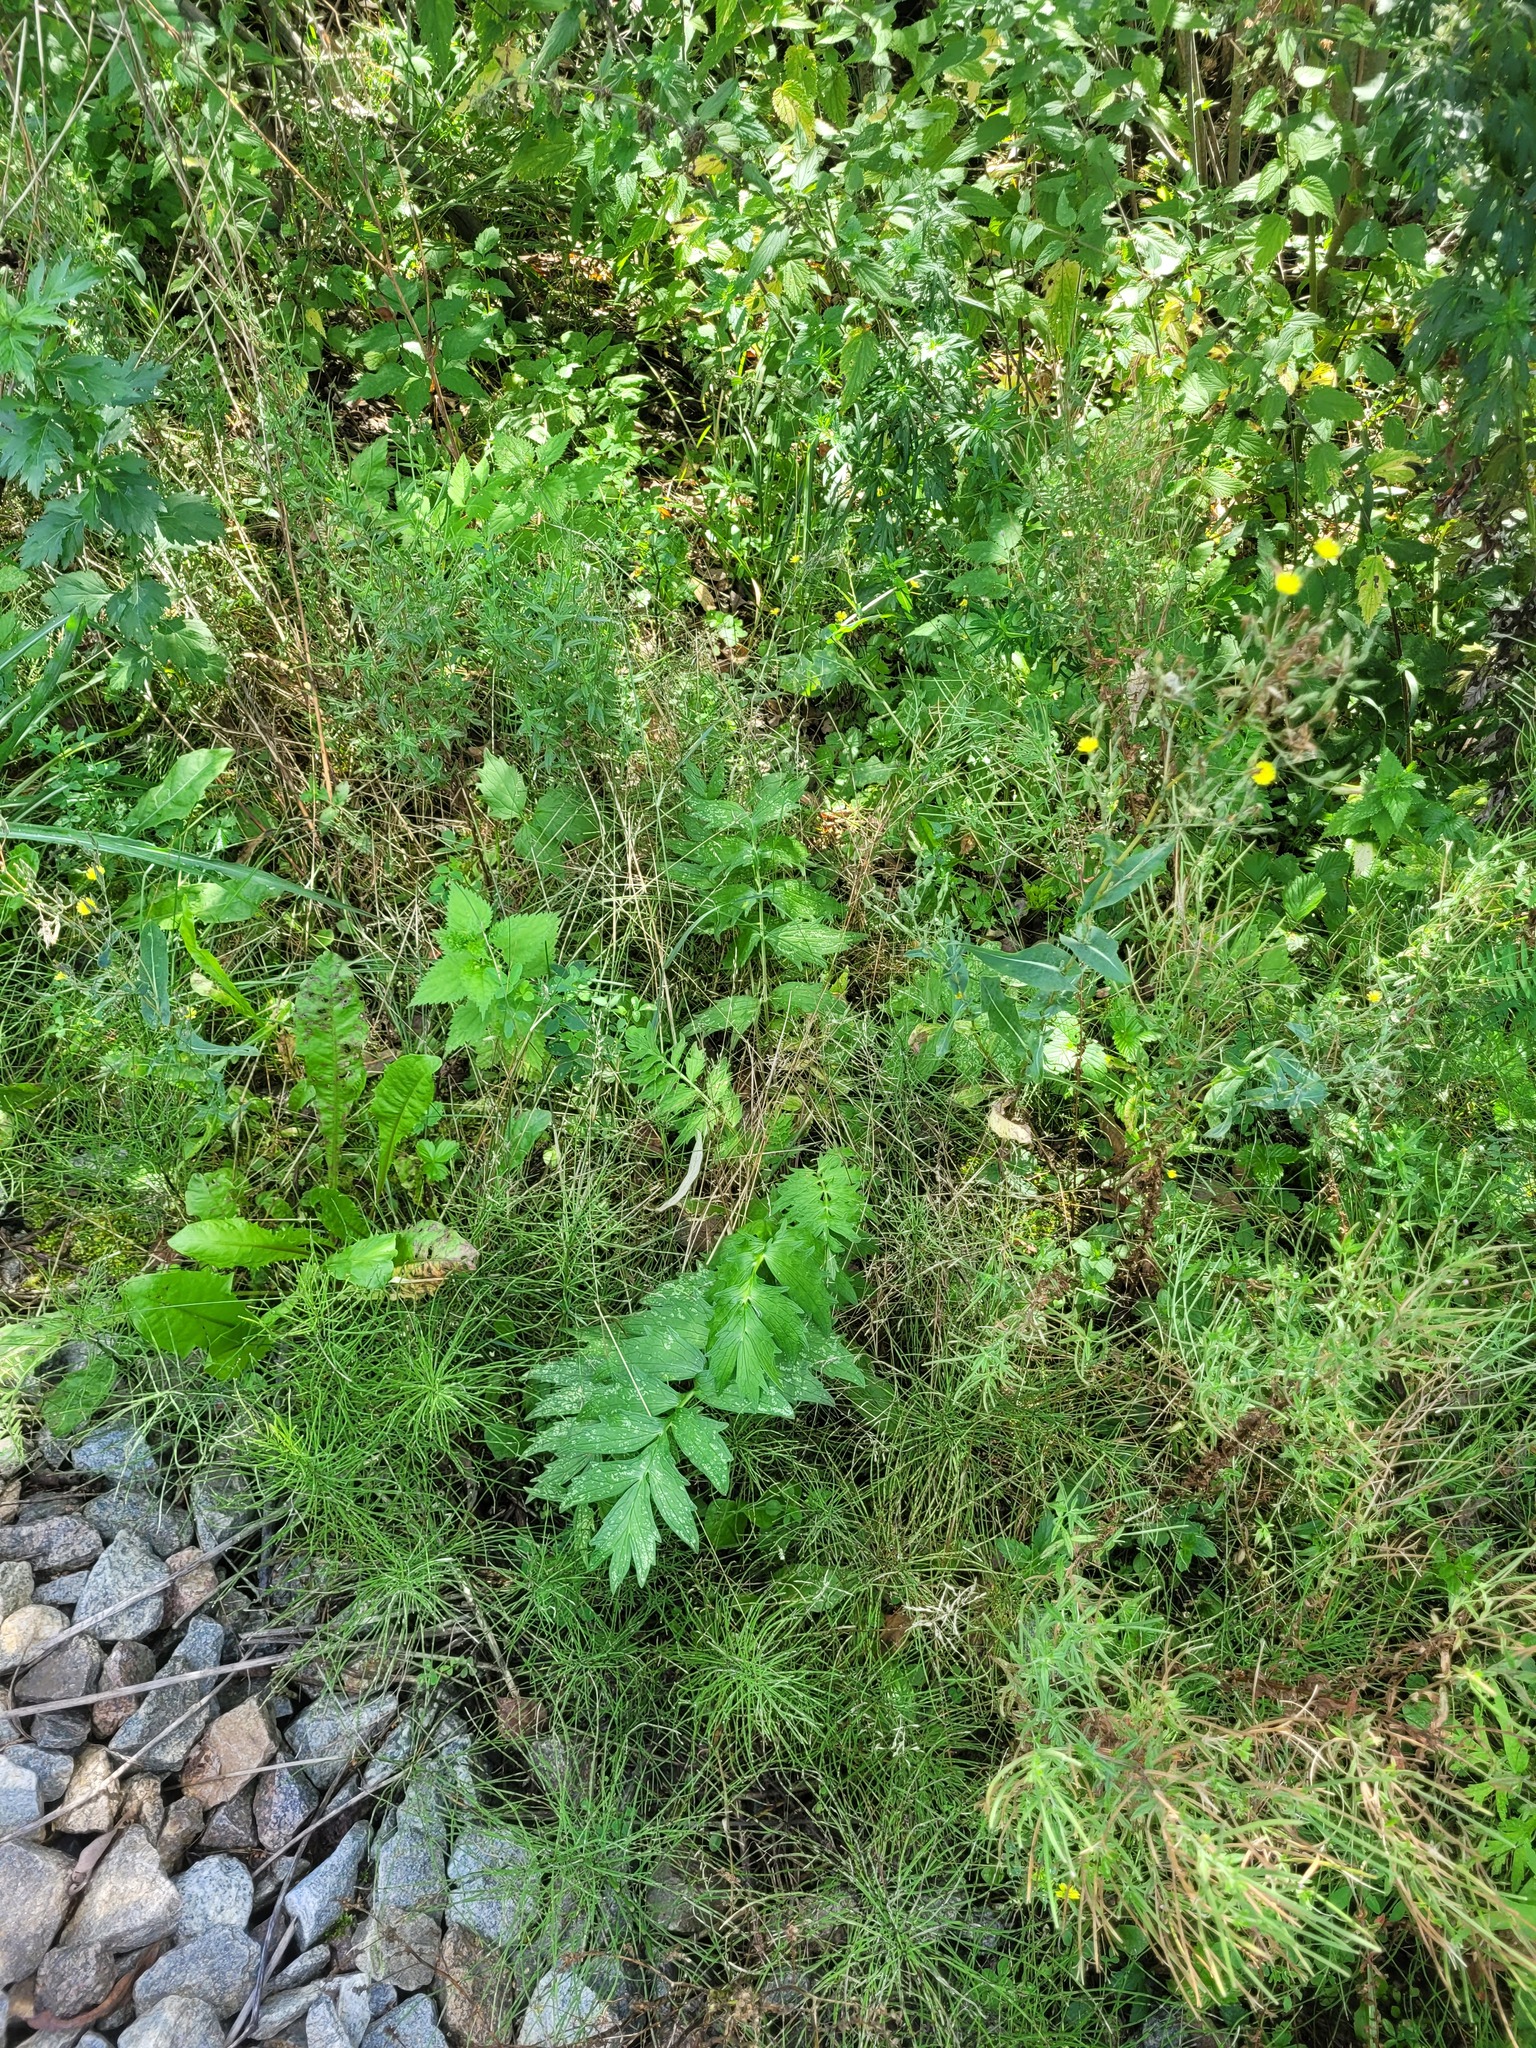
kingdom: Plantae
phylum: Tracheophyta
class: Magnoliopsida
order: Dipsacales
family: Caprifoliaceae
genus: Valeriana
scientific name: Valeriana officinalis
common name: Common valerian
